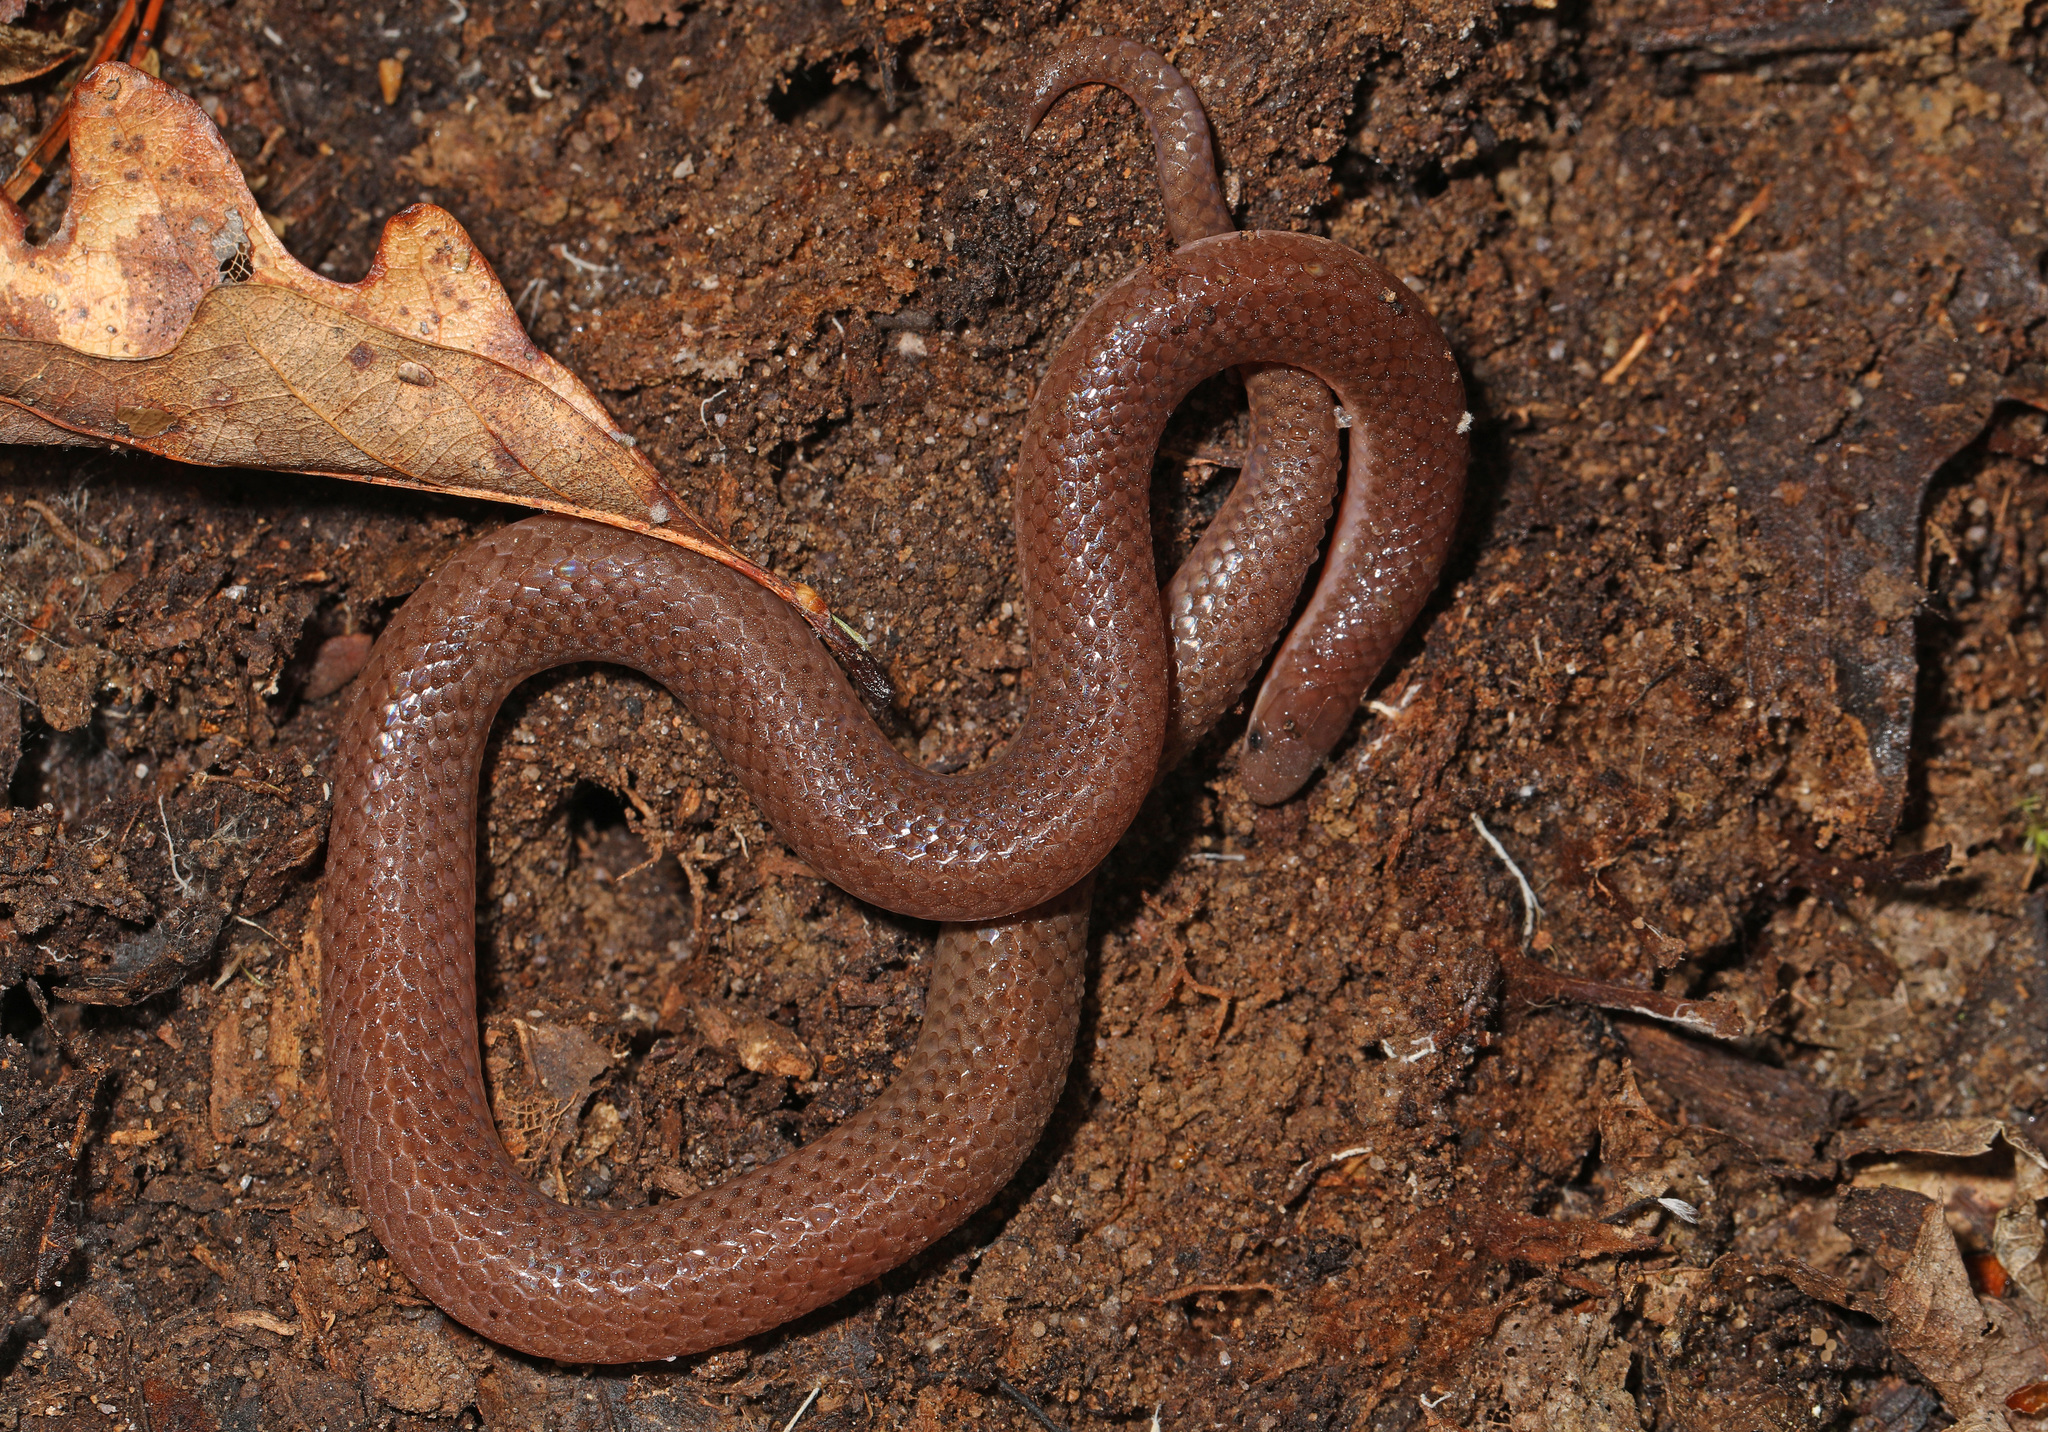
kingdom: Animalia
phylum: Chordata
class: Squamata
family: Colubridae
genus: Carphophis
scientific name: Carphophis amoenus
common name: Eastern worm snake
